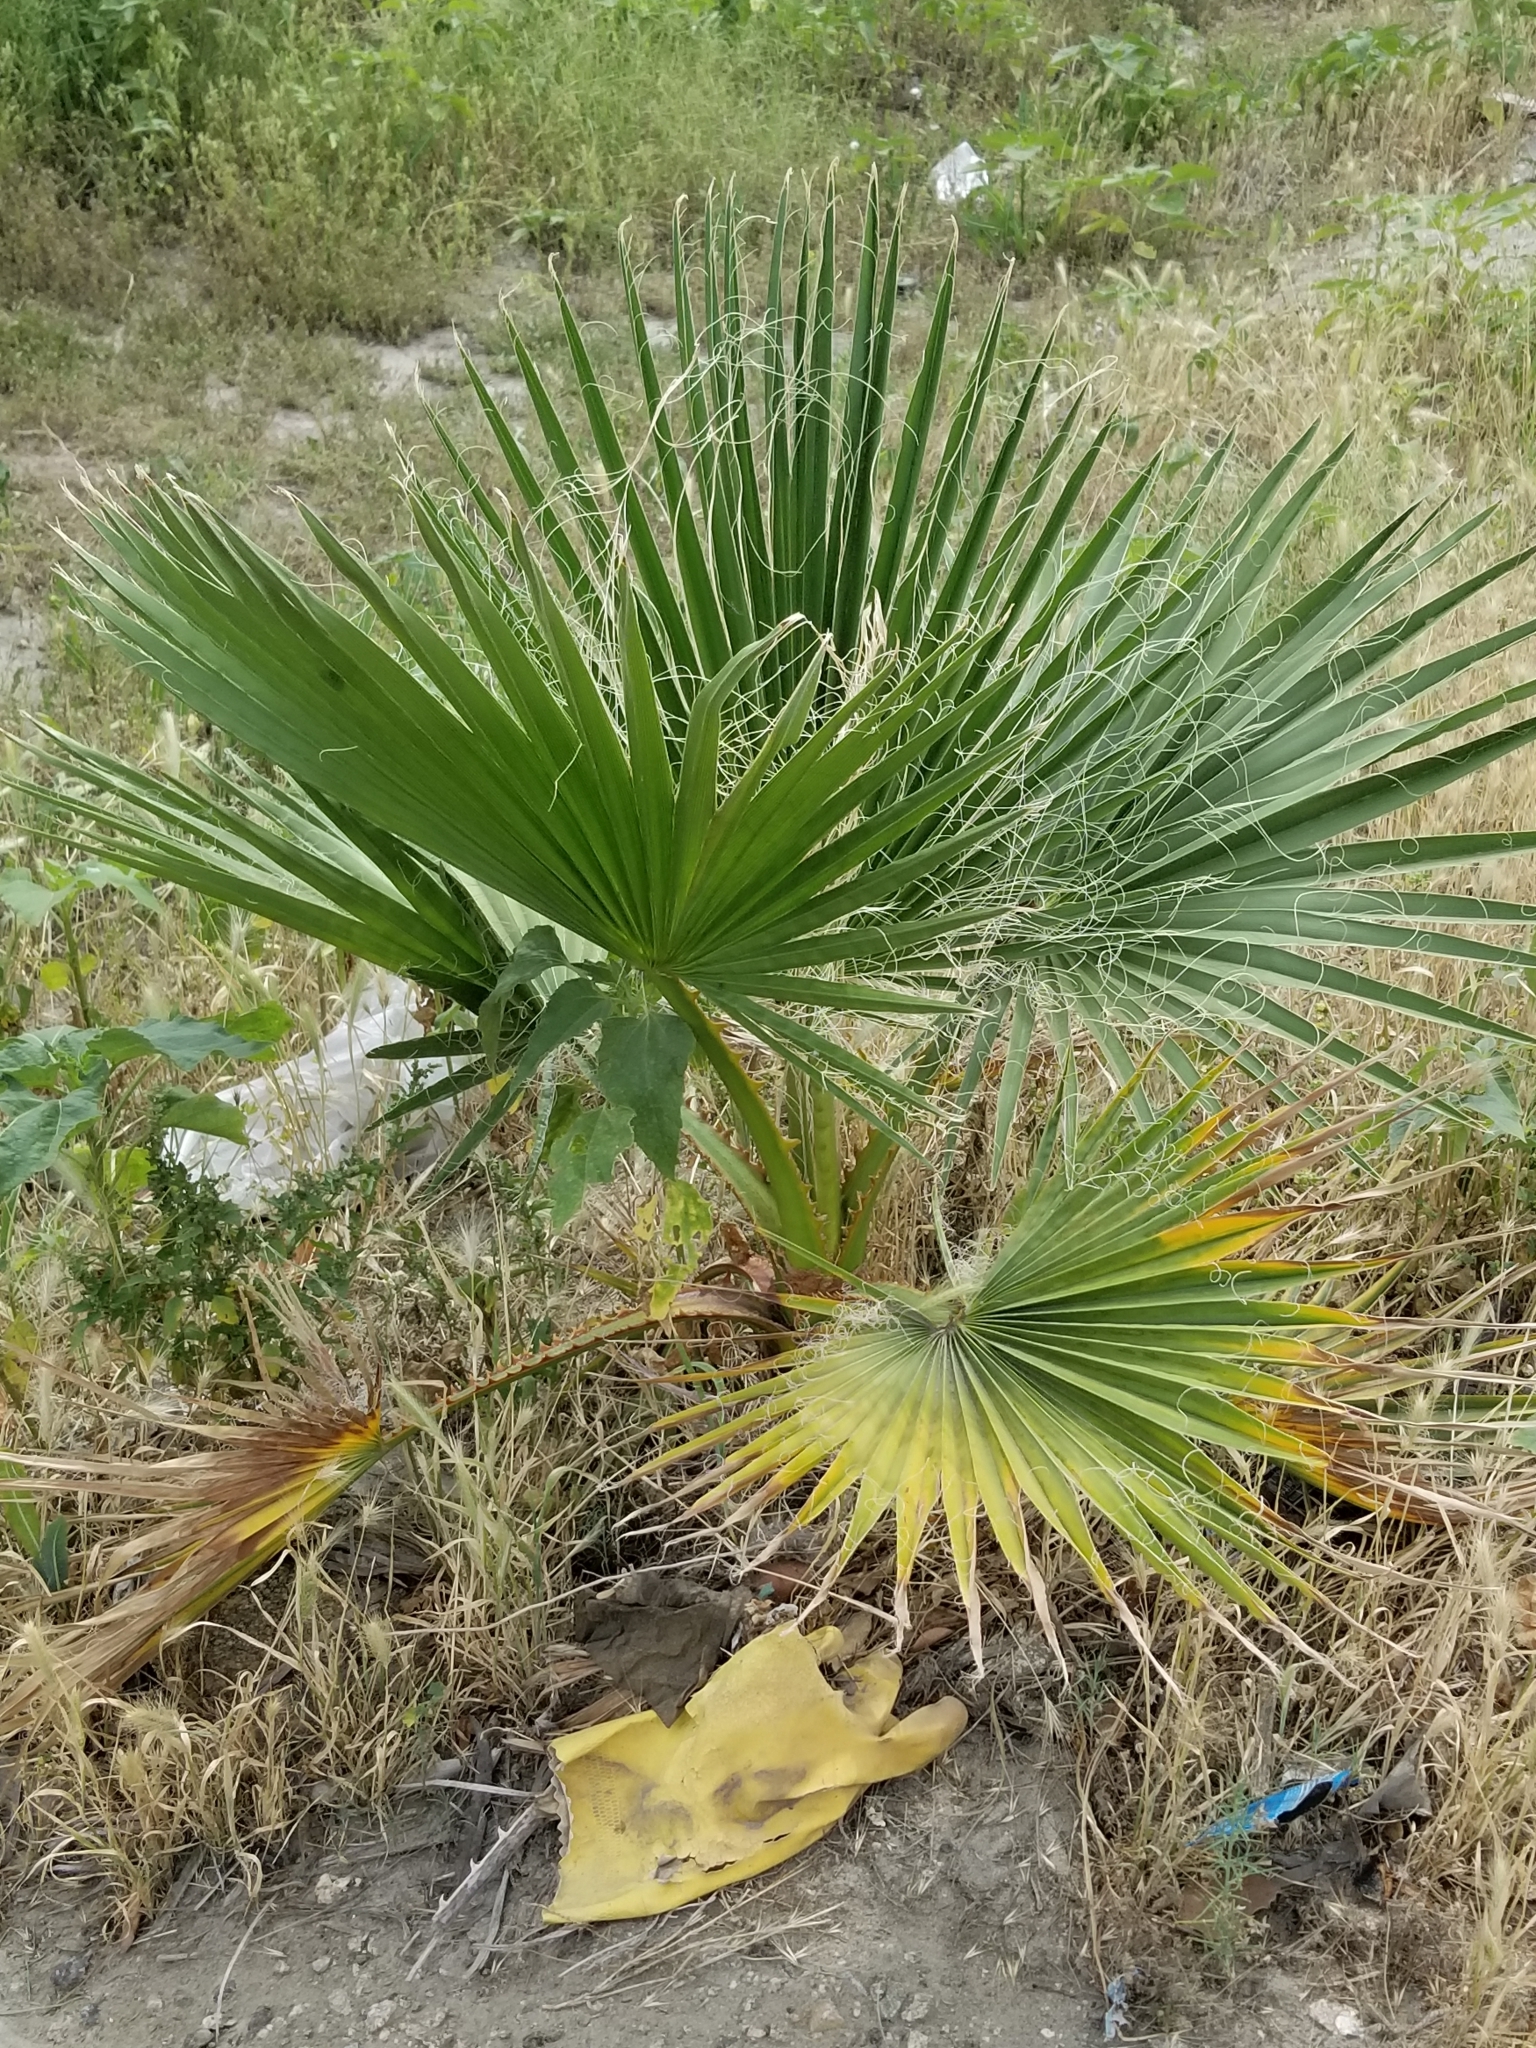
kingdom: Plantae
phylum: Tracheophyta
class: Liliopsida
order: Arecales
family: Arecaceae
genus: Washingtonia
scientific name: Washingtonia filifera
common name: California fan palm
